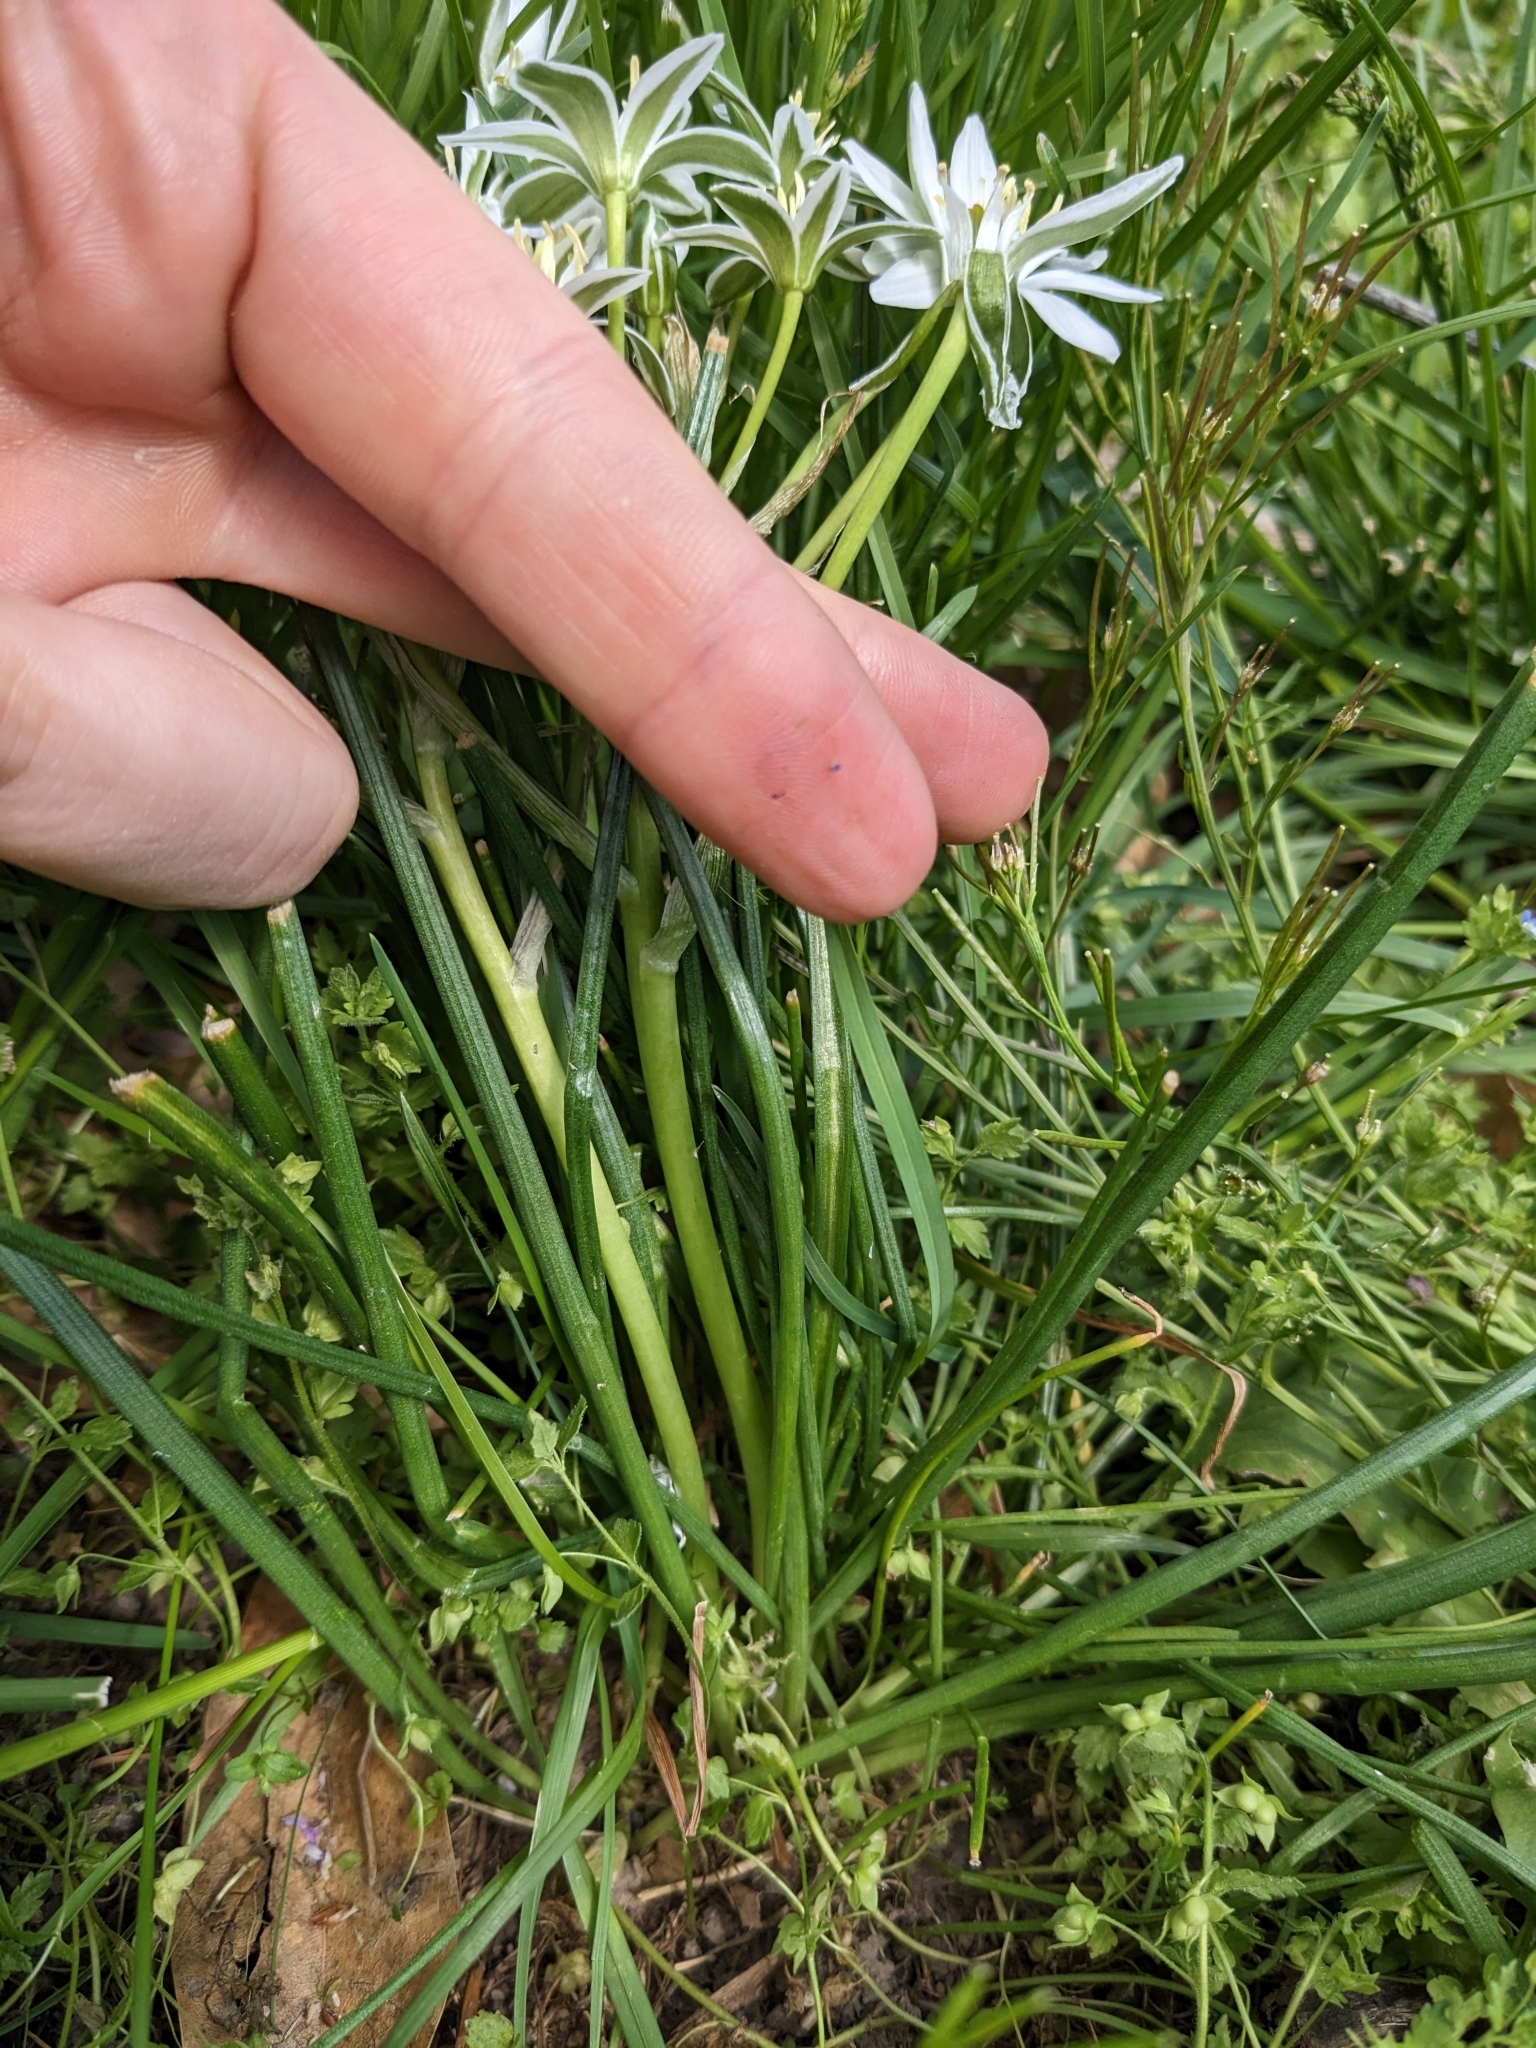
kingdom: Plantae
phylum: Tracheophyta
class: Liliopsida
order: Asparagales
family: Asparagaceae
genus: Ornithogalum
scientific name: Ornithogalum umbellatum
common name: Garden star-of-bethlehem
